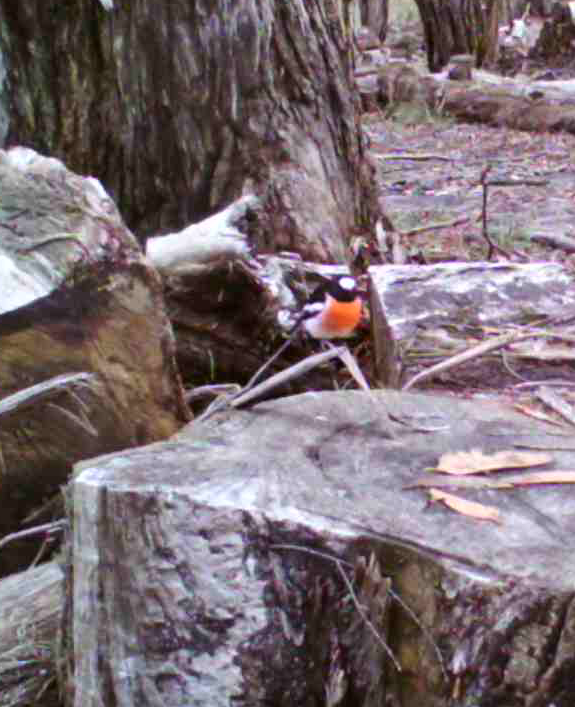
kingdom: Animalia
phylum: Chordata
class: Aves
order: Passeriformes
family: Petroicidae
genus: Petroica
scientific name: Petroica boodang
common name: Scarlet robin
